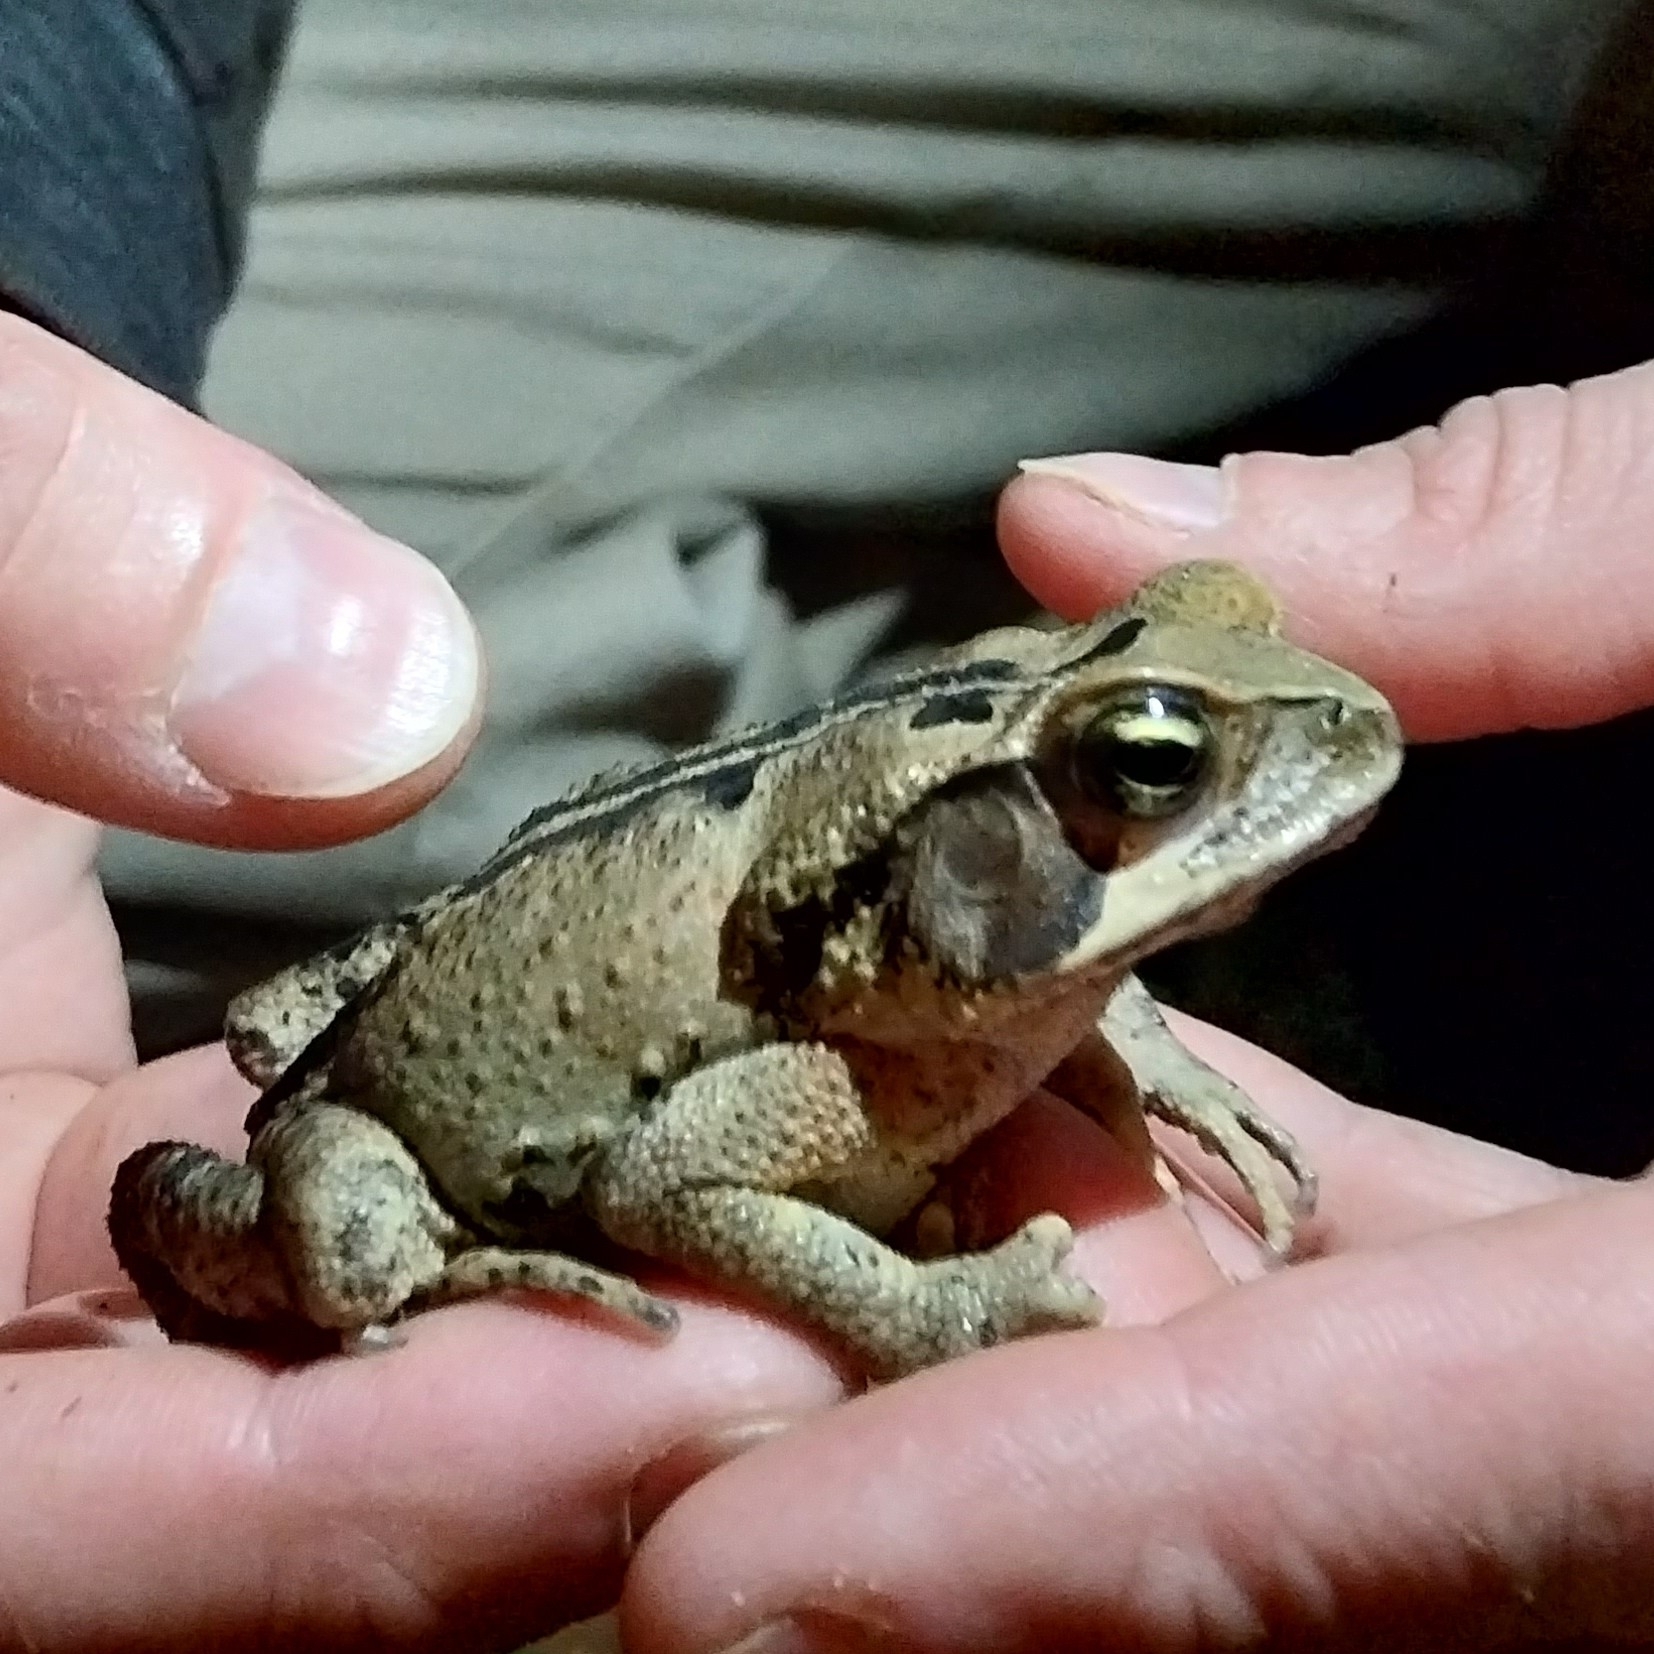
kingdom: Animalia
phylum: Chordata
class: Amphibia
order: Anura
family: Bufonidae
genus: Rhinella
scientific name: Rhinella ornata
